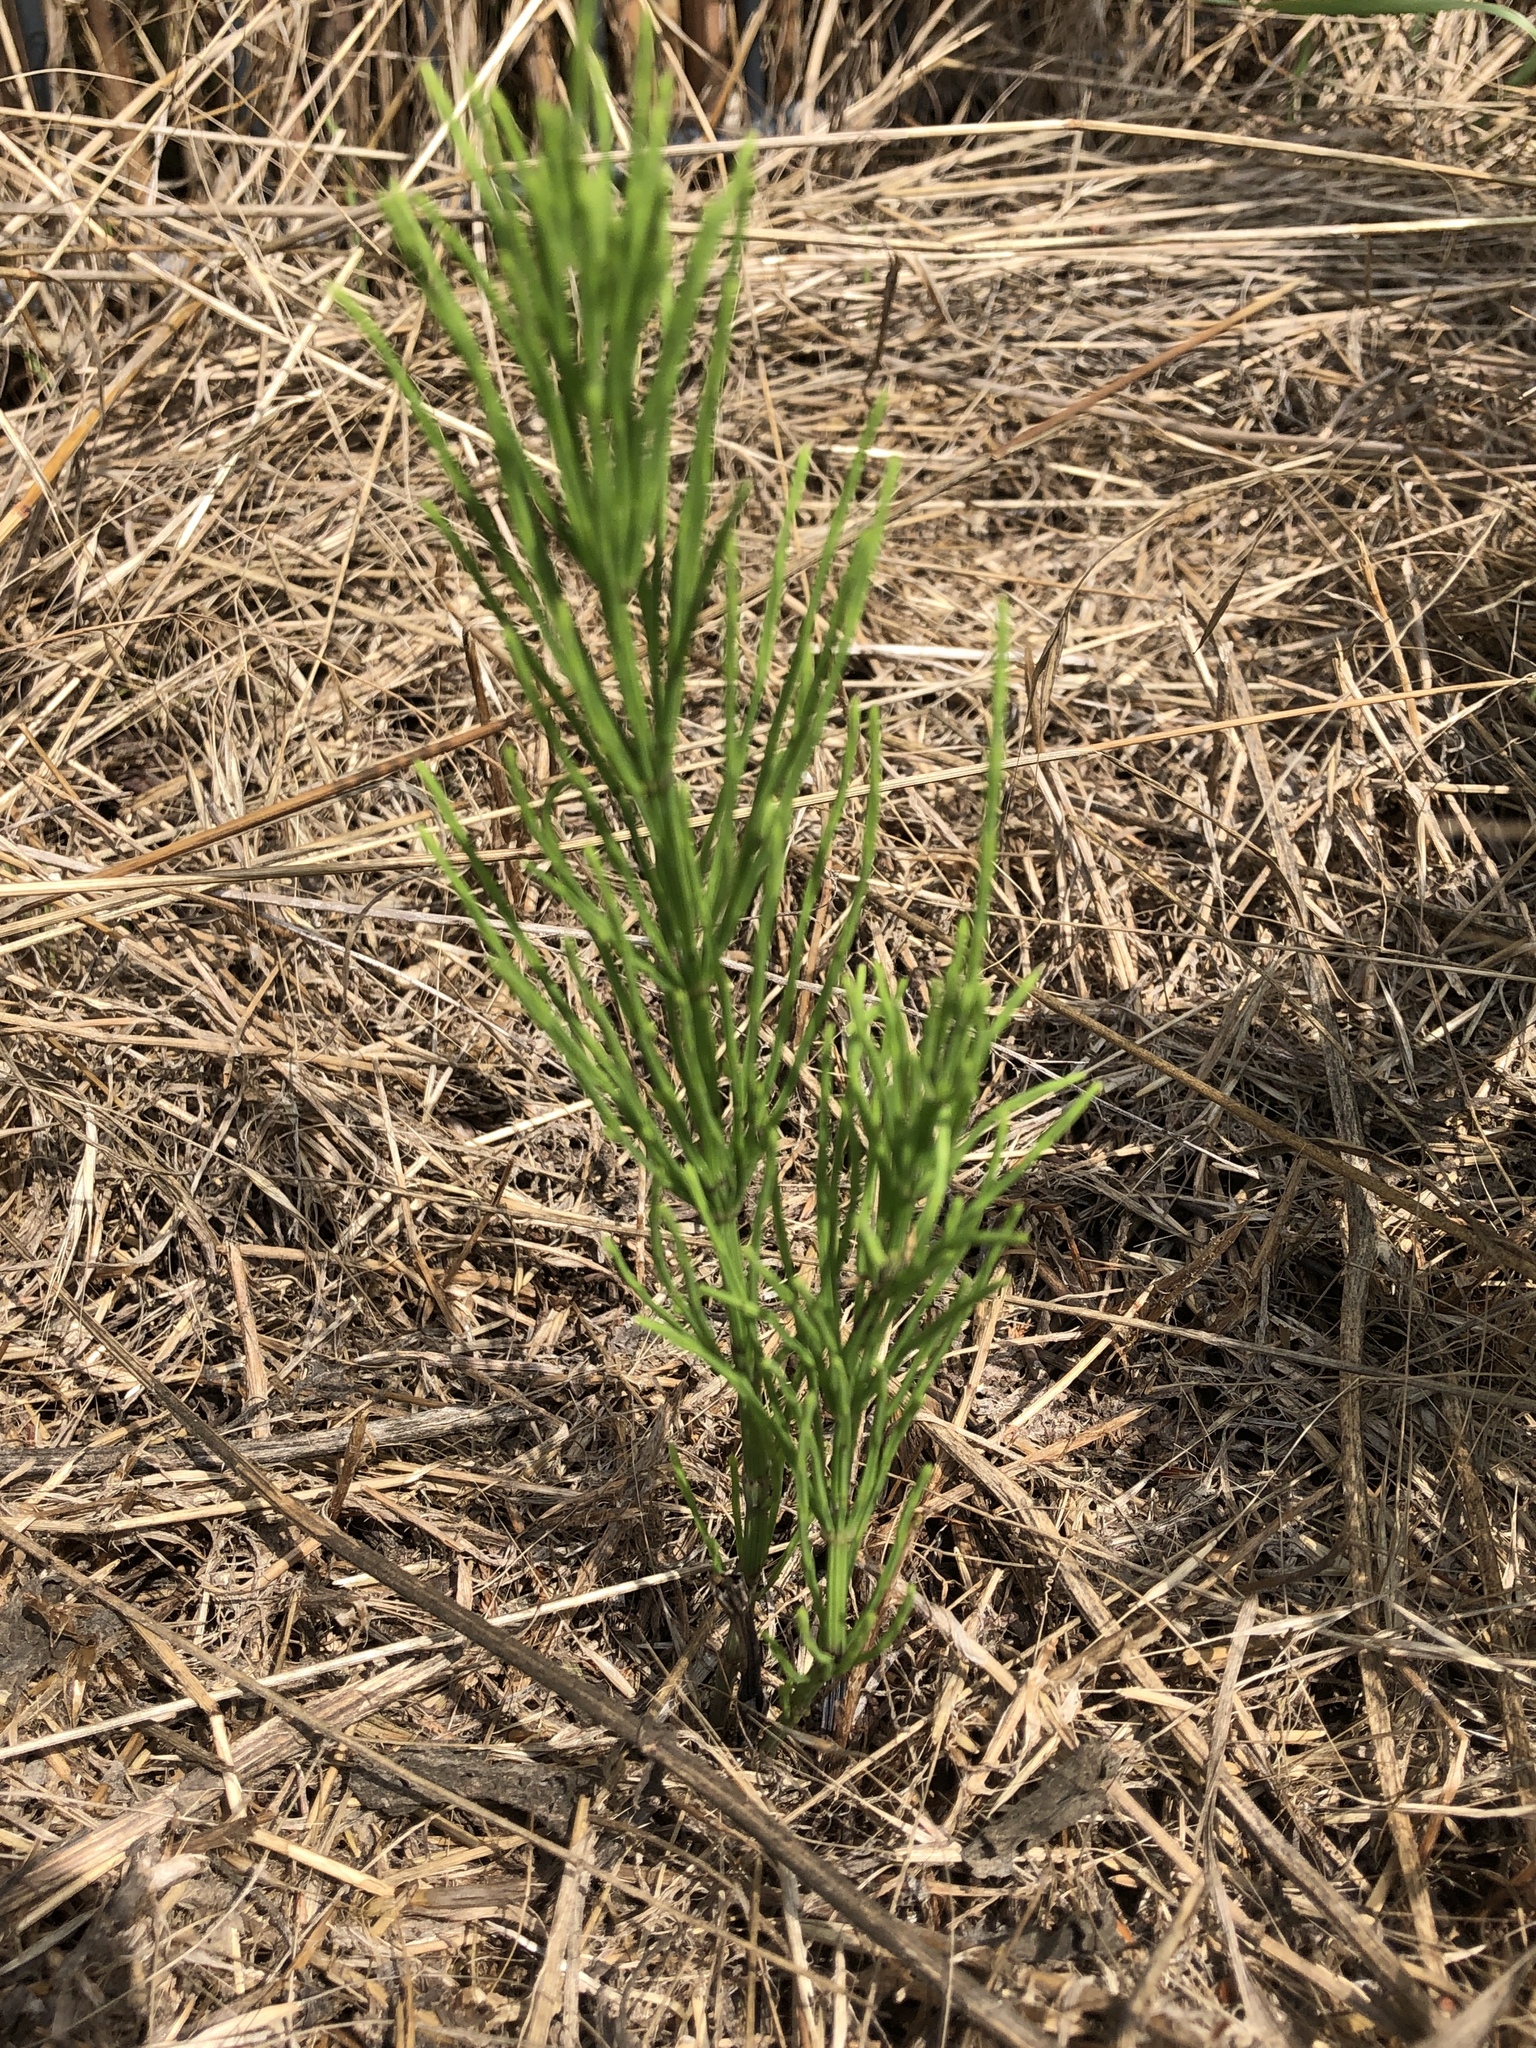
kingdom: Plantae
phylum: Tracheophyta
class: Polypodiopsida
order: Equisetales
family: Equisetaceae
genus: Equisetum
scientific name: Equisetum arvense
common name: Field horsetail
